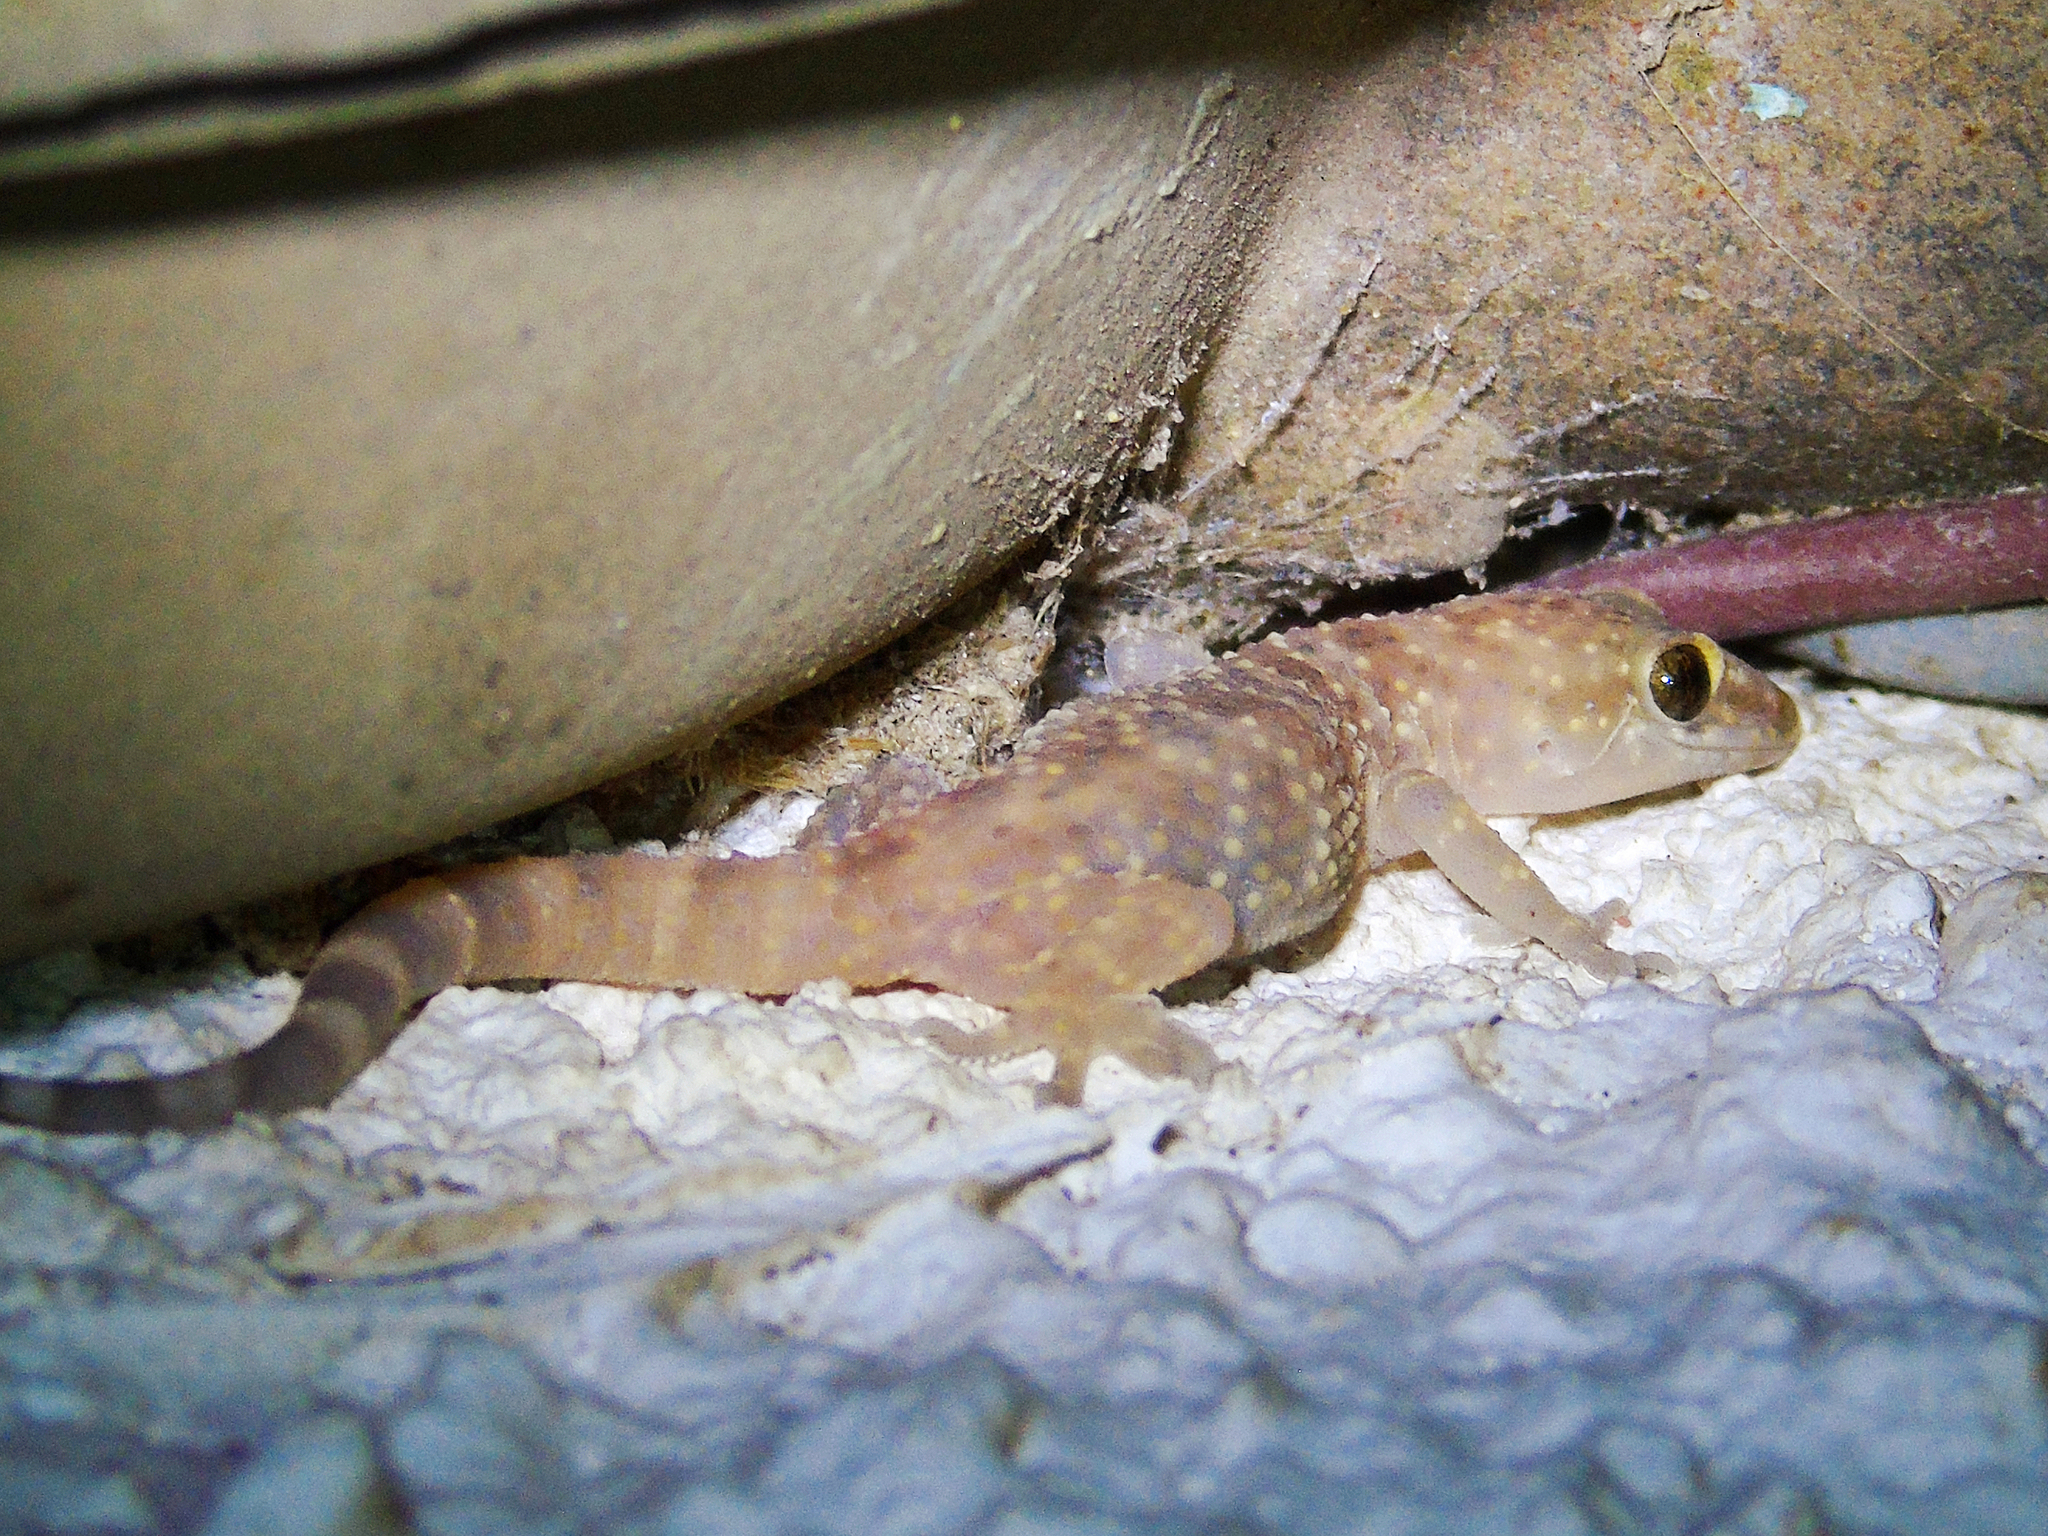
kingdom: Animalia
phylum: Chordata
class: Squamata
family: Gekkonidae
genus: Hemidactylus
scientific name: Hemidactylus turcicus
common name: Turkish gecko
